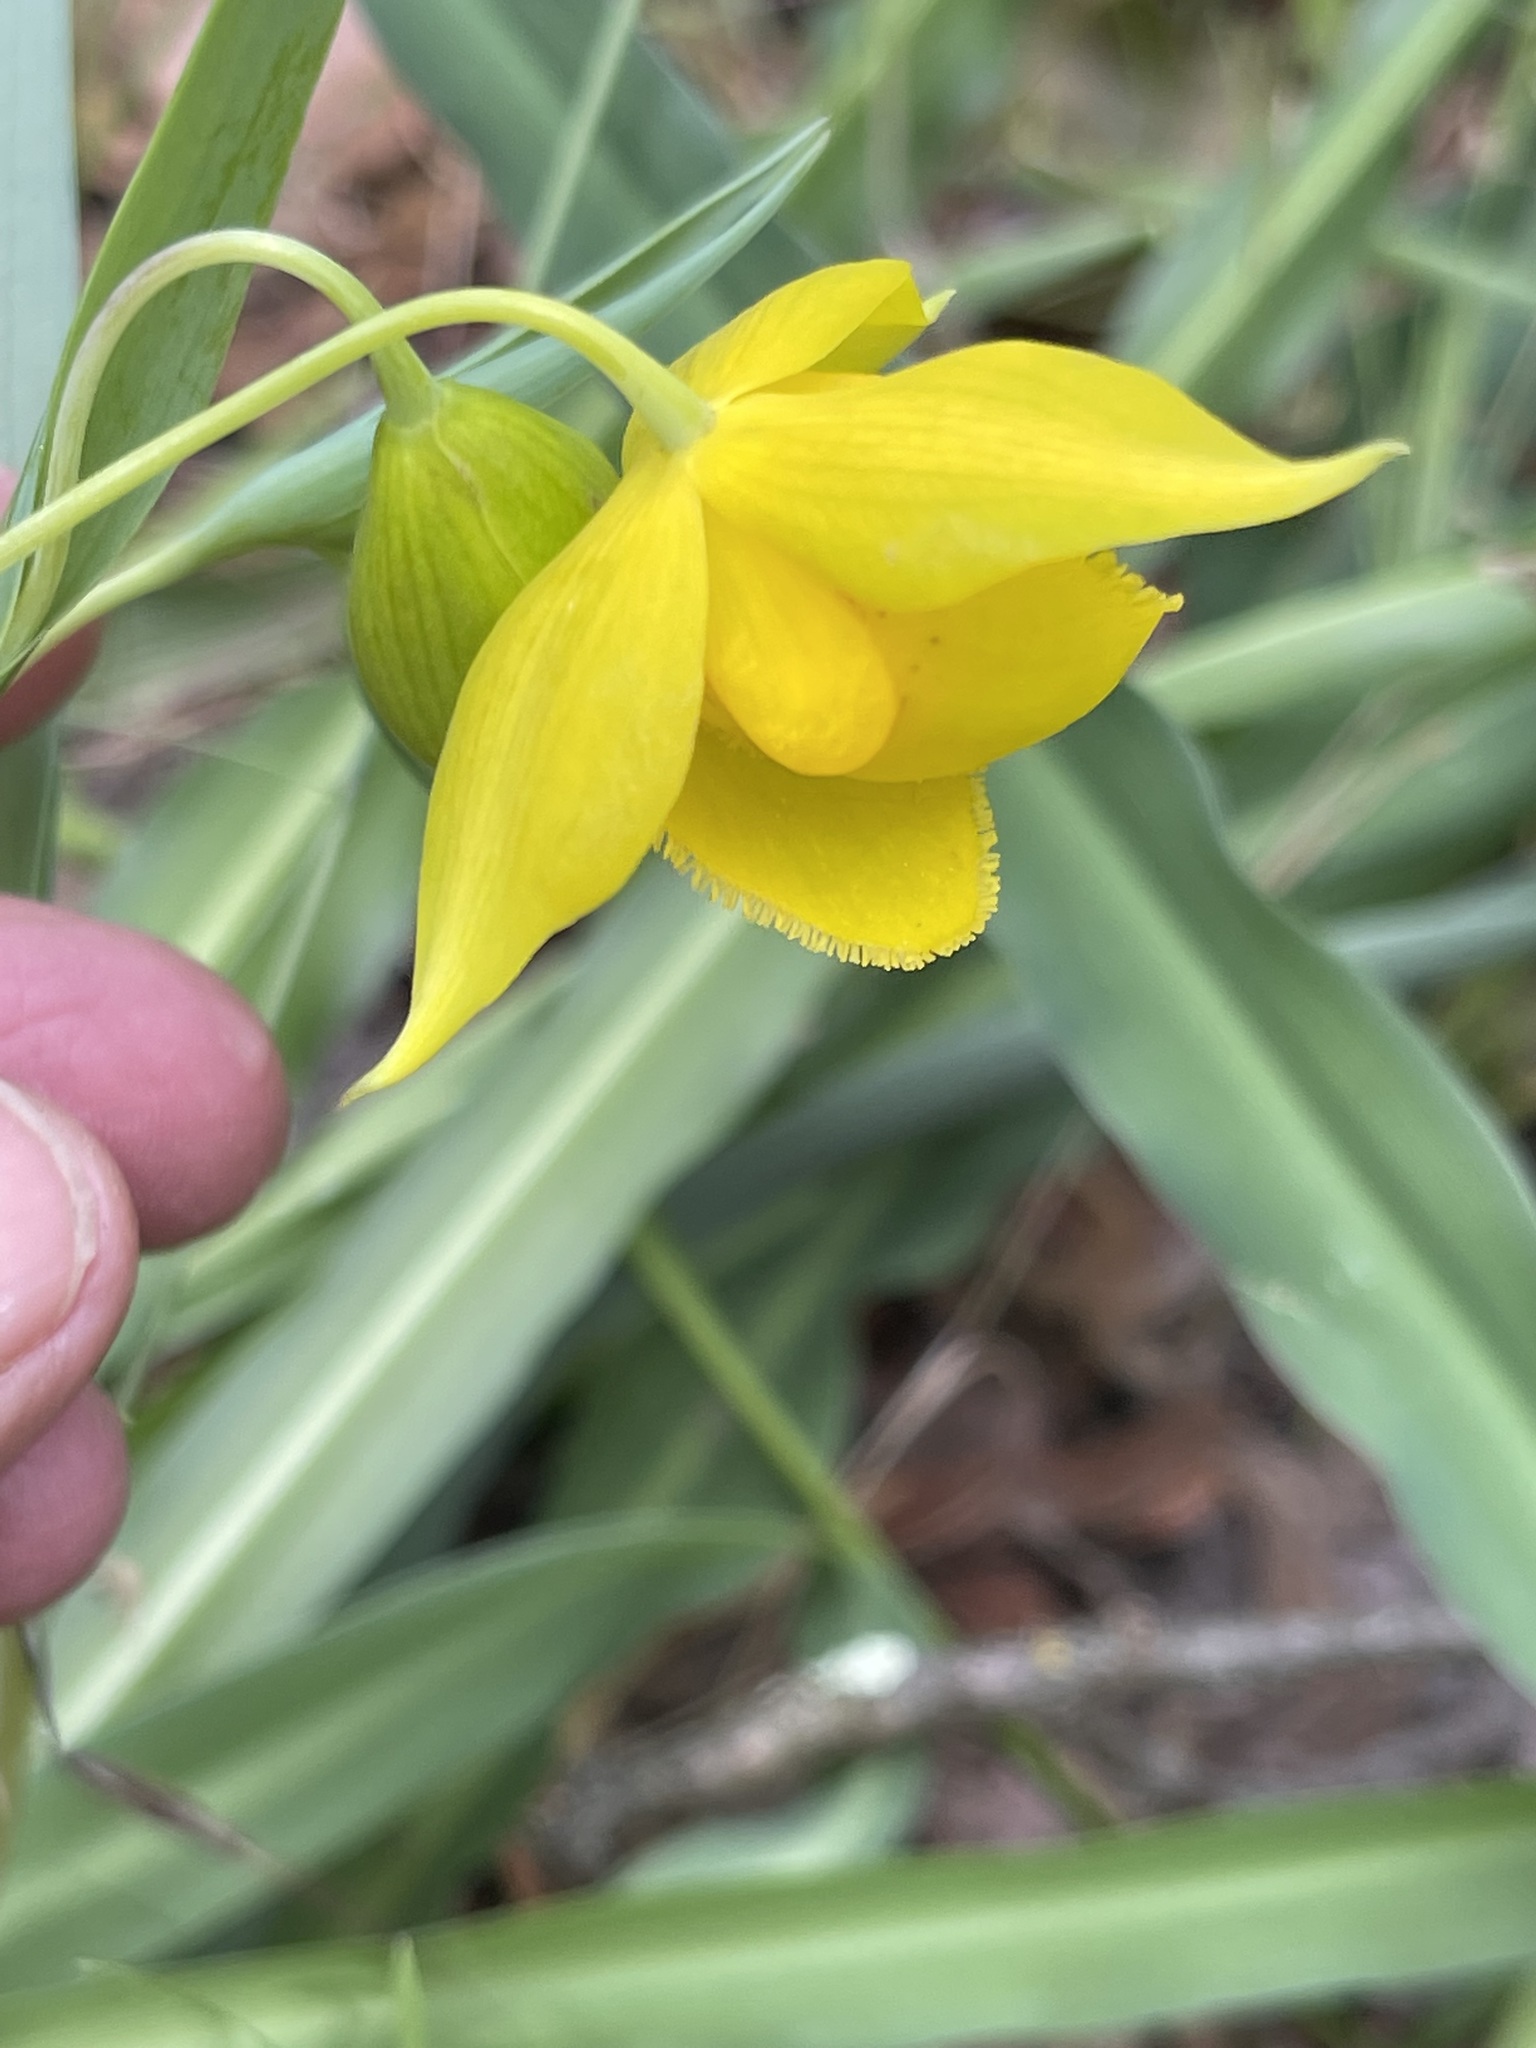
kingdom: Plantae
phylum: Tracheophyta
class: Liliopsida
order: Liliales
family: Liliaceae
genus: Calochortus
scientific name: Calochortus amabilis
